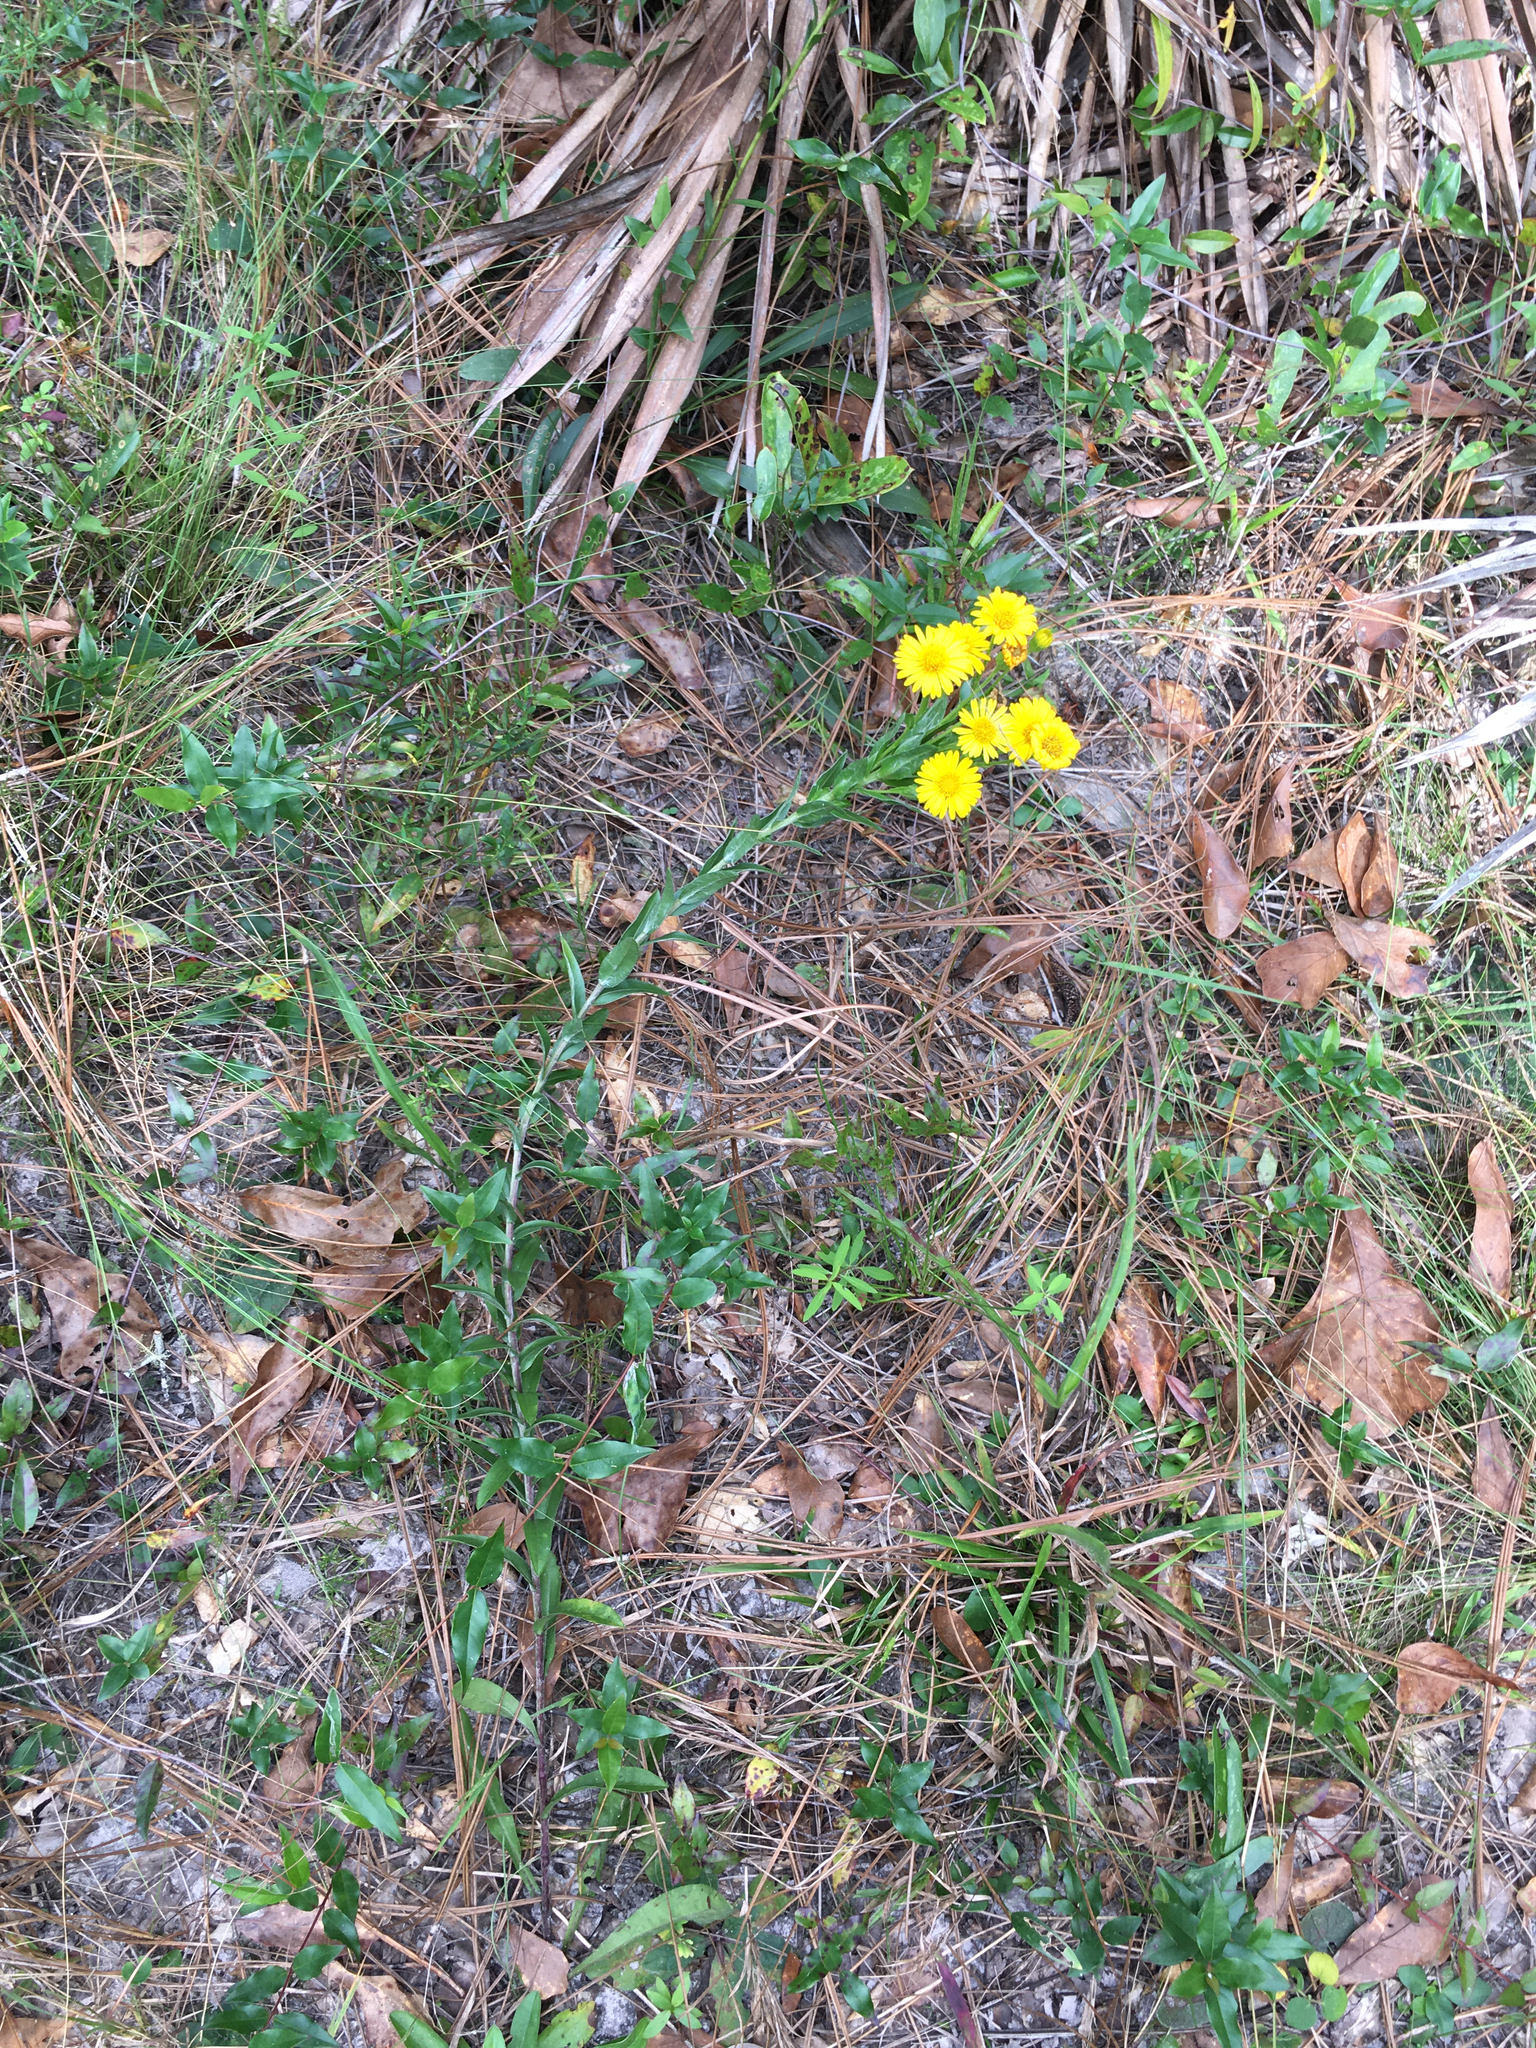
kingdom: Plantae
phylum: Tracheophyta
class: Magnoliopsida
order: Asterales
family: Asteraceae
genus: Chrysopsis
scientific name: Chrysopsis mariana
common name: Maryland golden-aster
